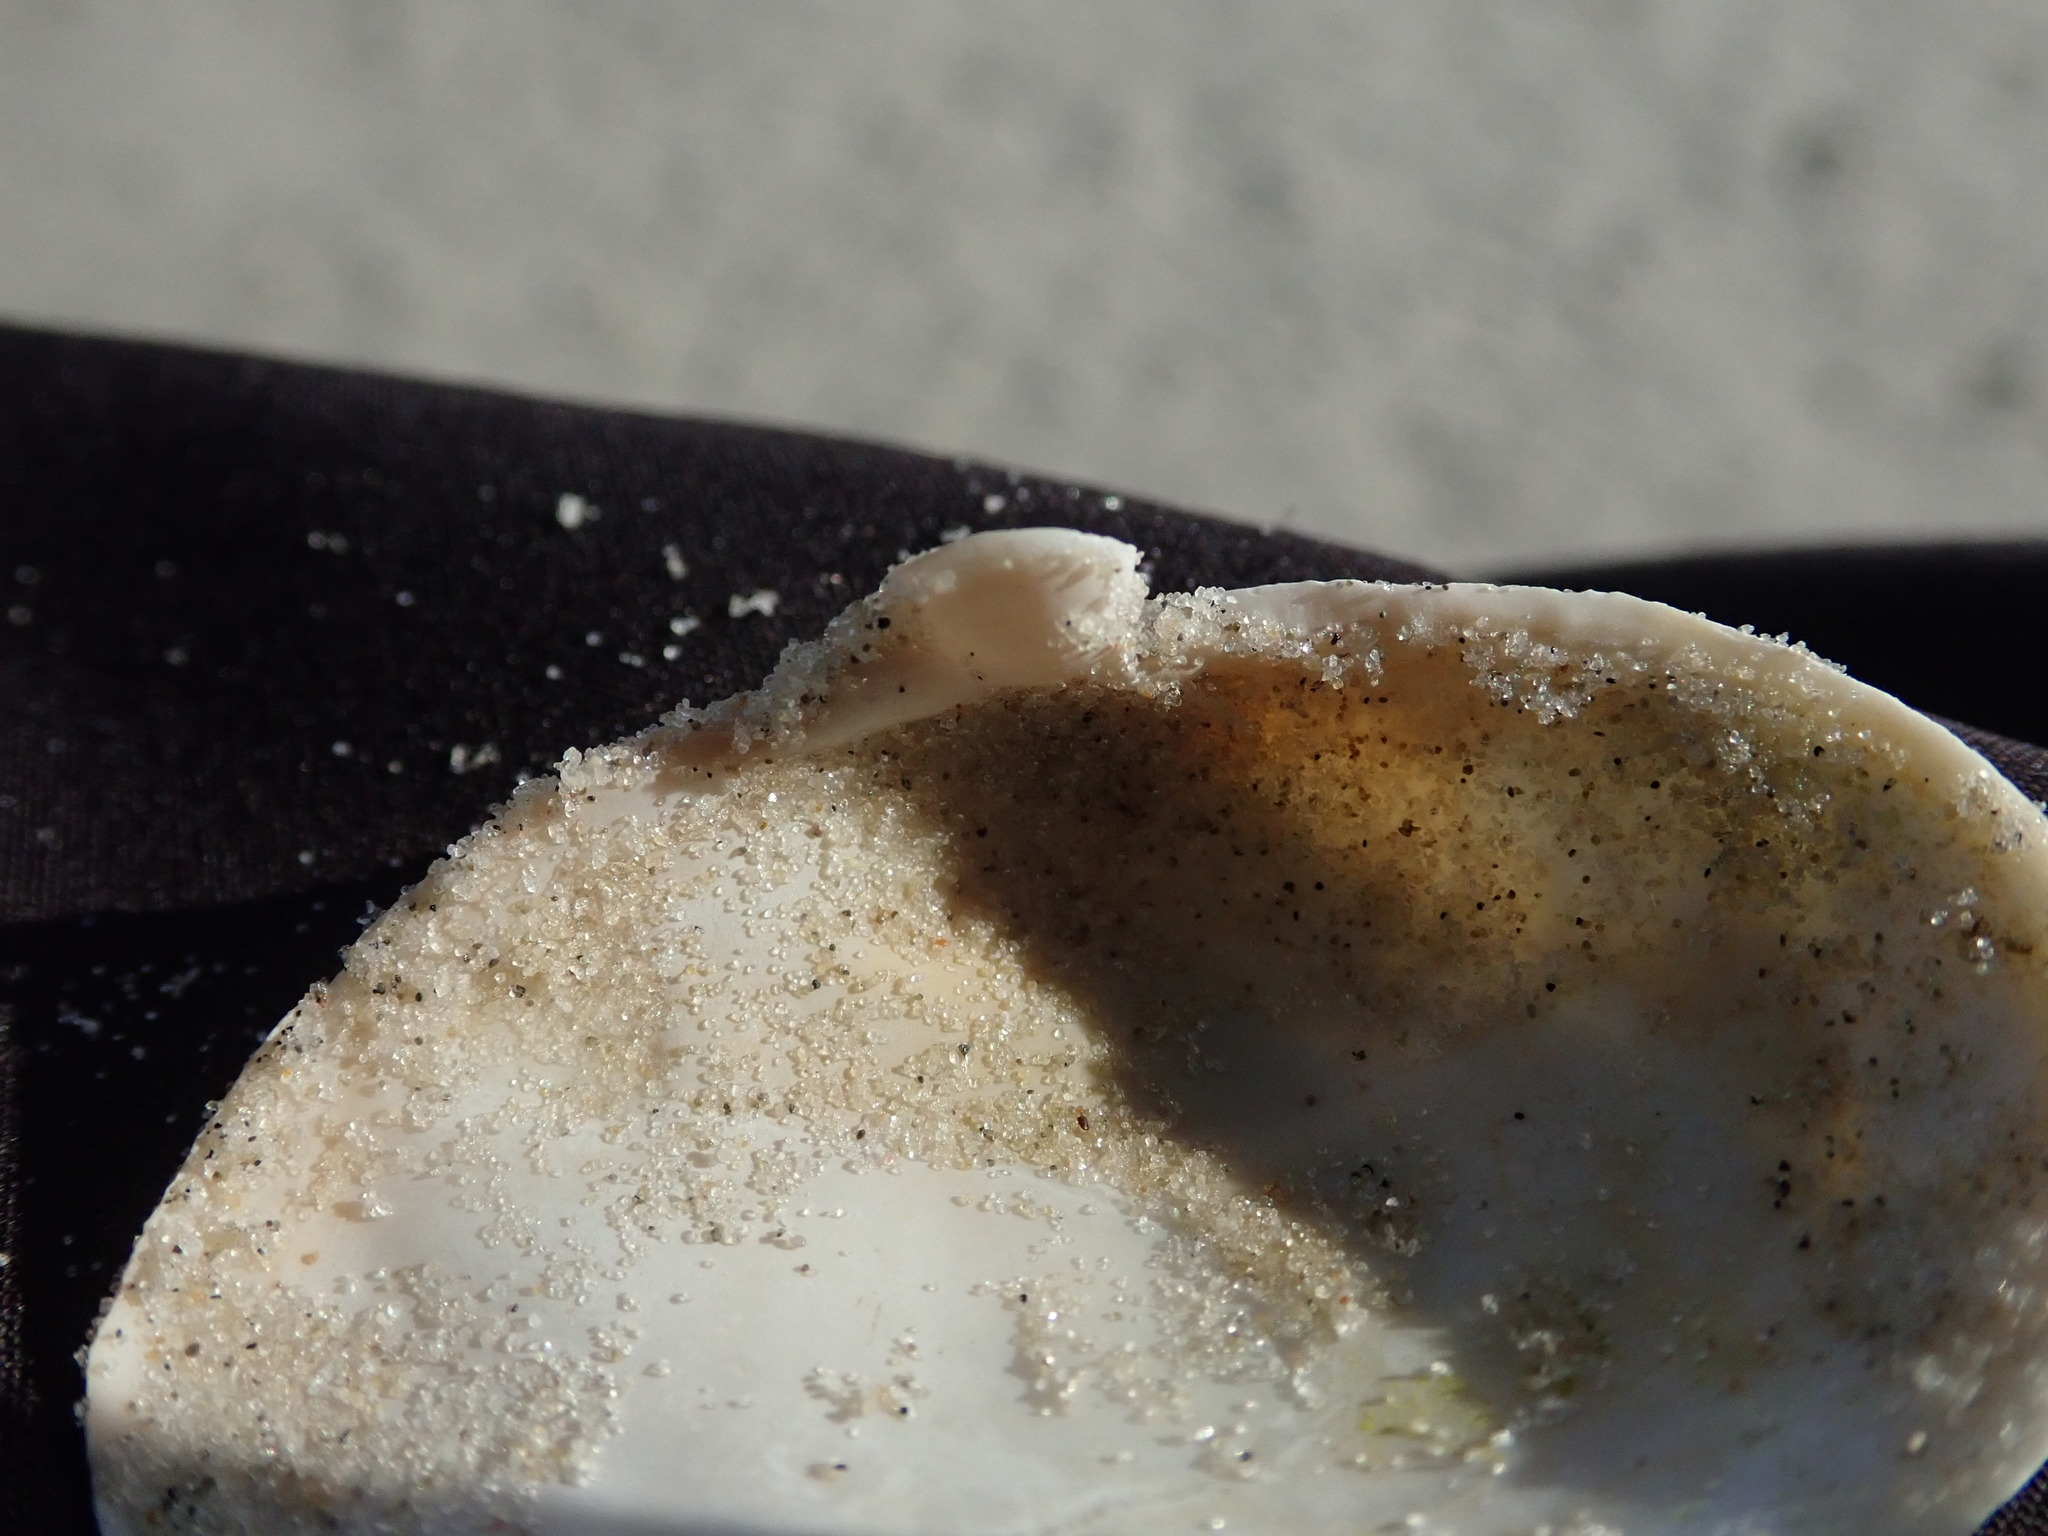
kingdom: Animalia
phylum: Mollusca
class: Bivalvia
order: Myida
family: Myidae
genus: Mya
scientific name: Mya arenaria
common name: Soft-shelled clam
